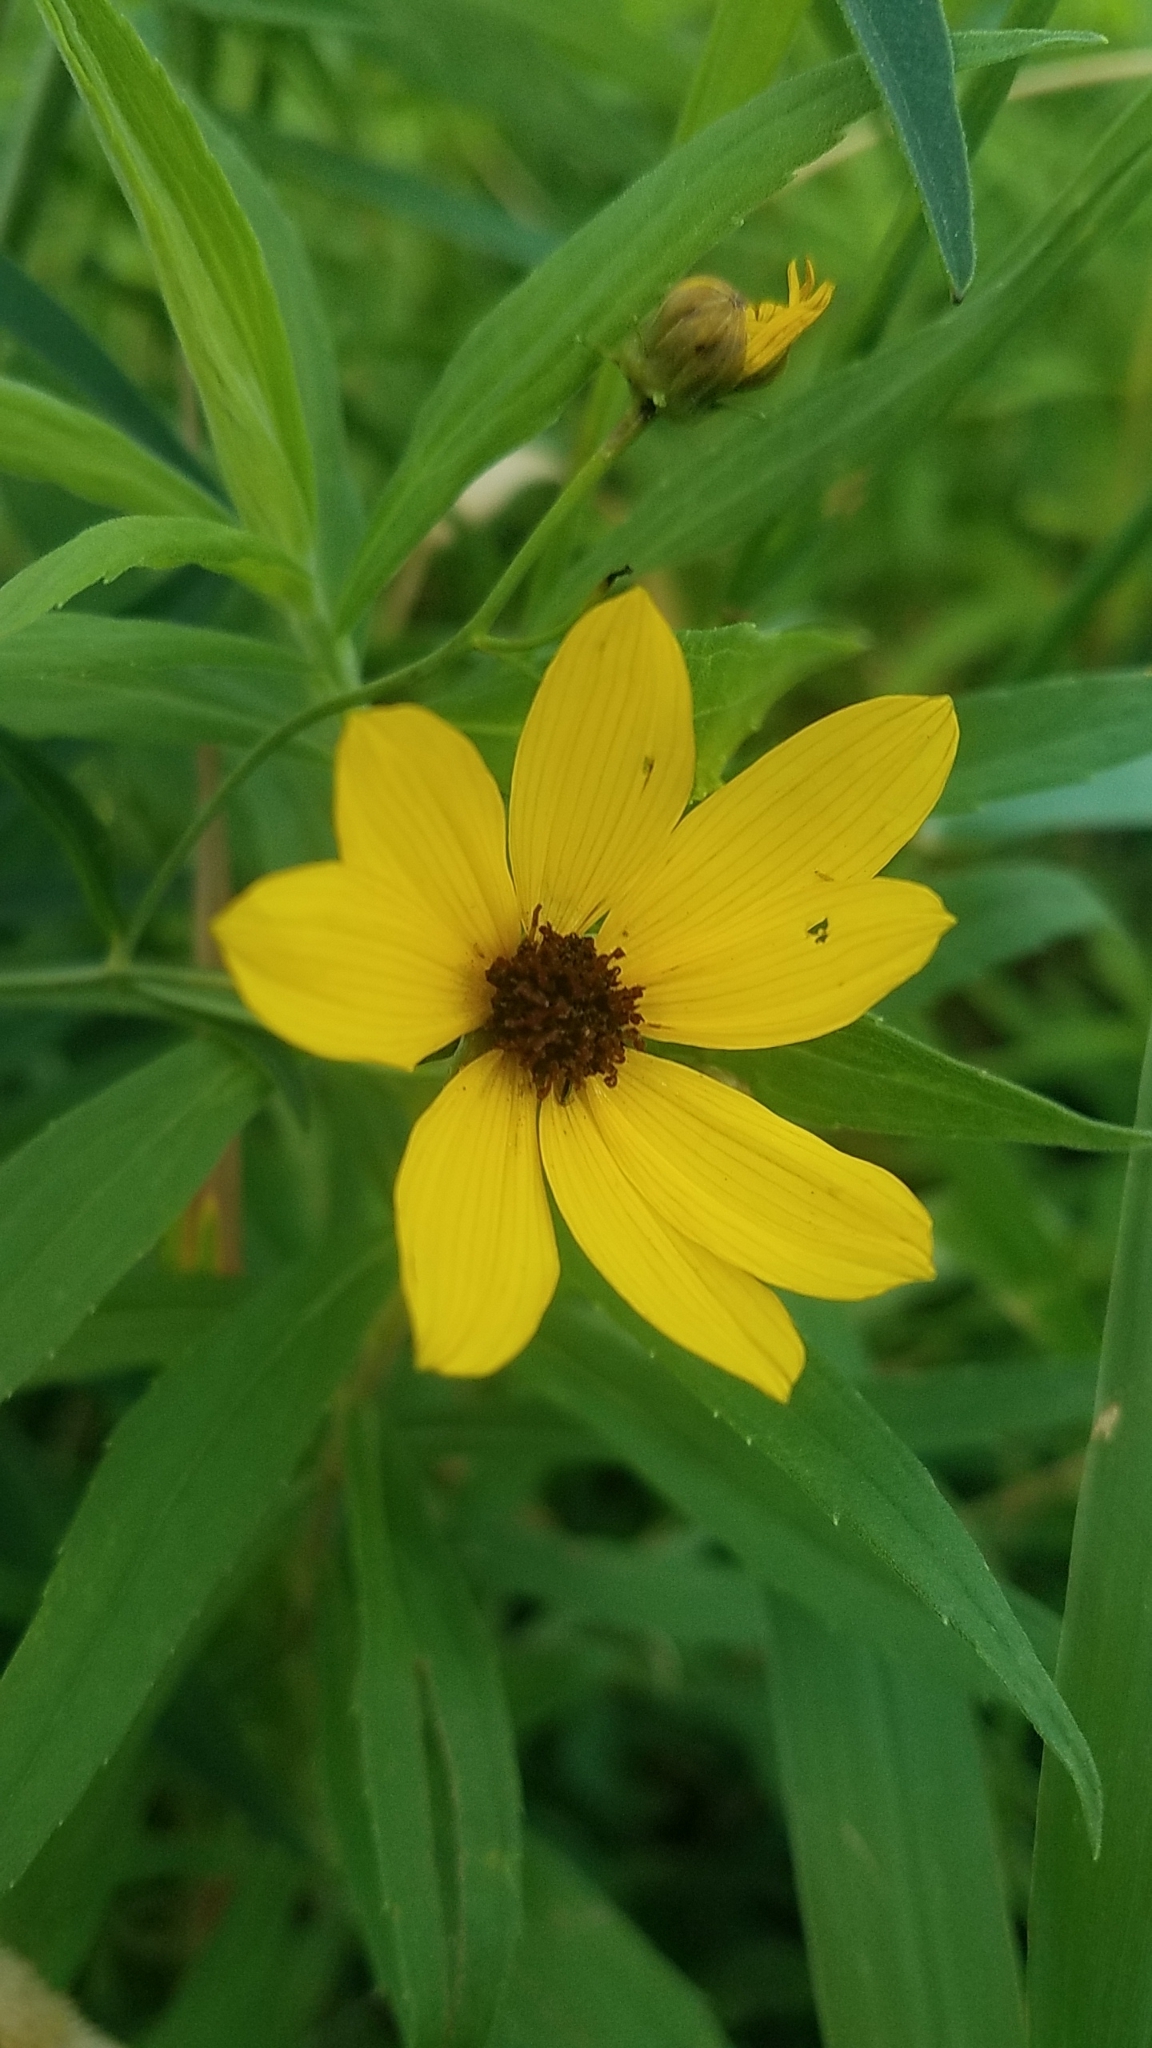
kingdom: Plantae
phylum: Tracheophyta
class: Magnoliopsida
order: Asterales
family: Asteraceae
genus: Coreopsis
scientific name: Coreopsis tripteris
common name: Tall coreopsis
